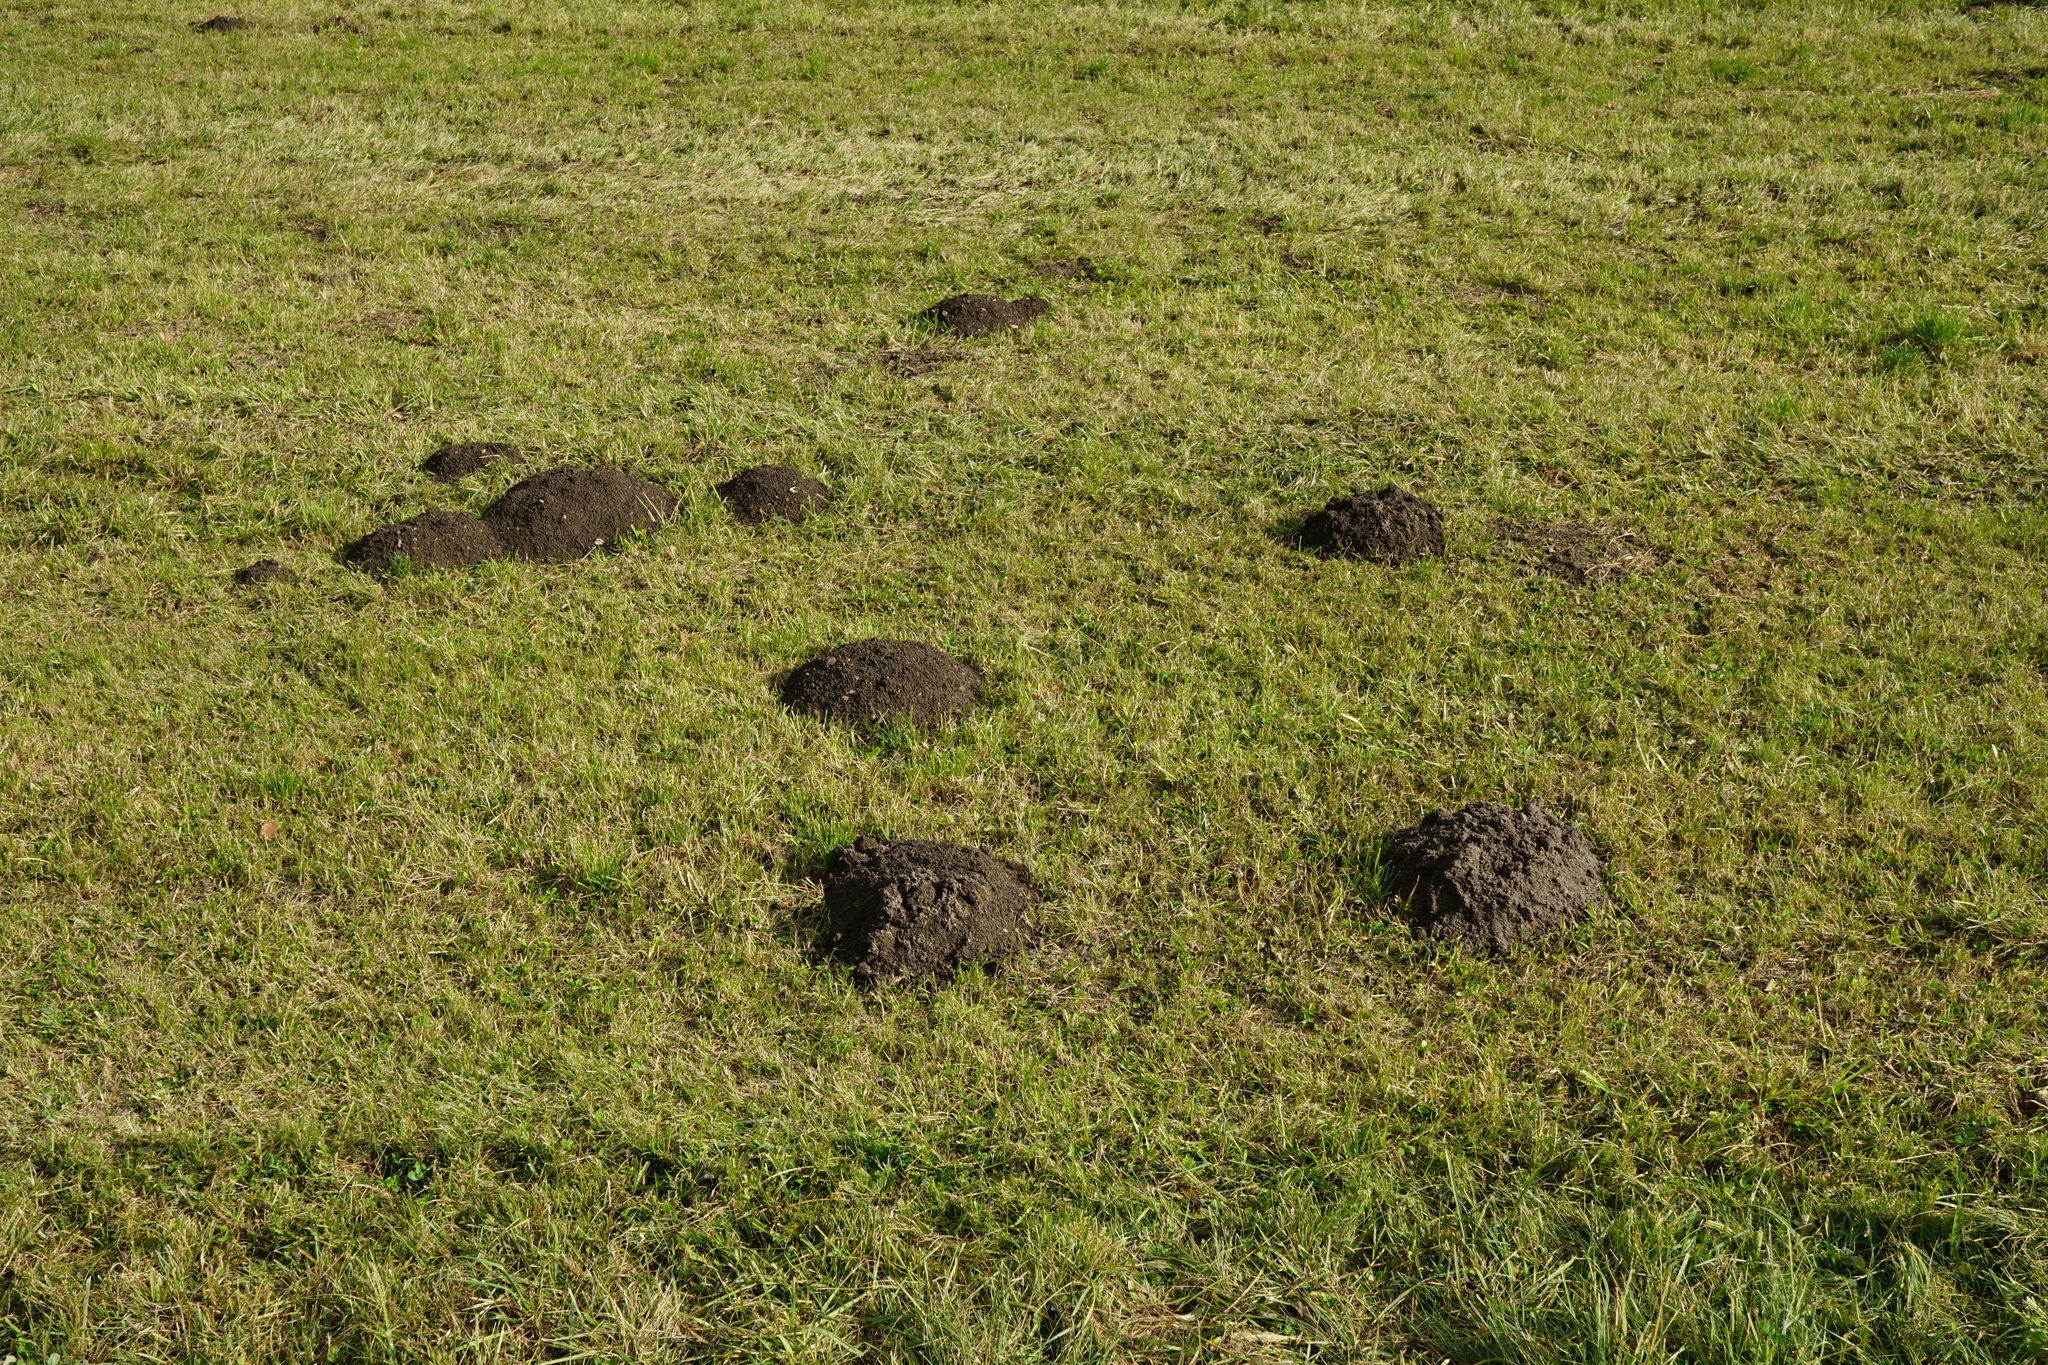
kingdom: Animalia
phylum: Chordata
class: Mammalia
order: Soricomorpha
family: Talpidae
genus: Talpa
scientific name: Talpa europaea
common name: European mole
